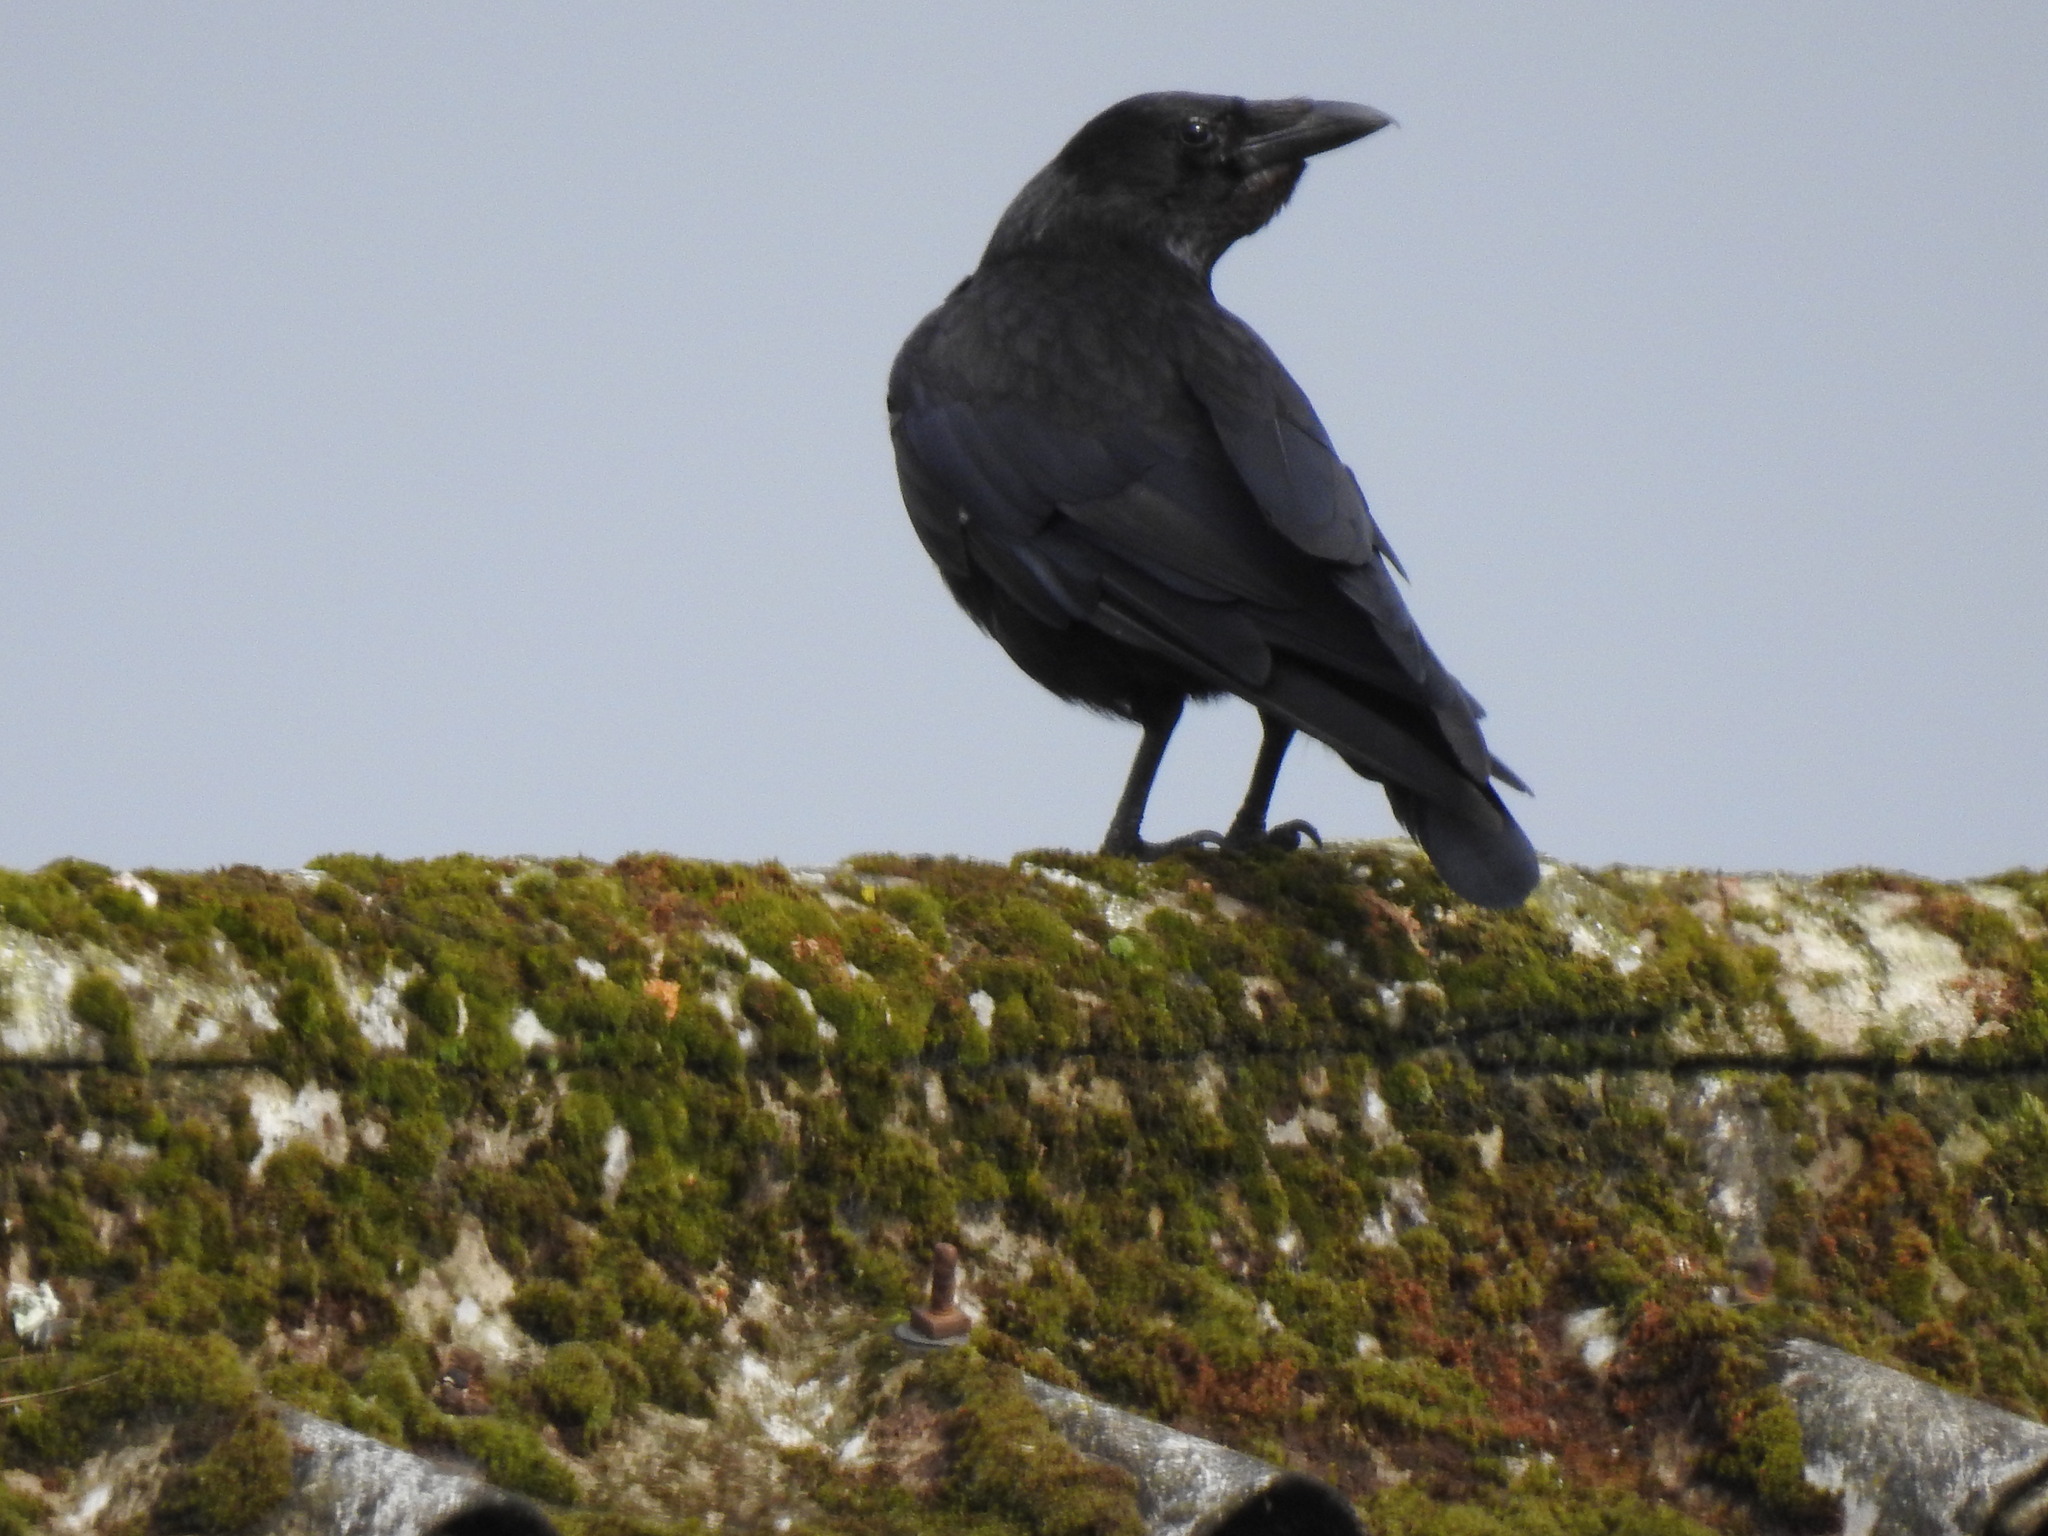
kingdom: Animalia
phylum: Chordata
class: Aves
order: Passeriformes
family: Corvidae
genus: Corvus
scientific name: Corvus corax
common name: Common raven
